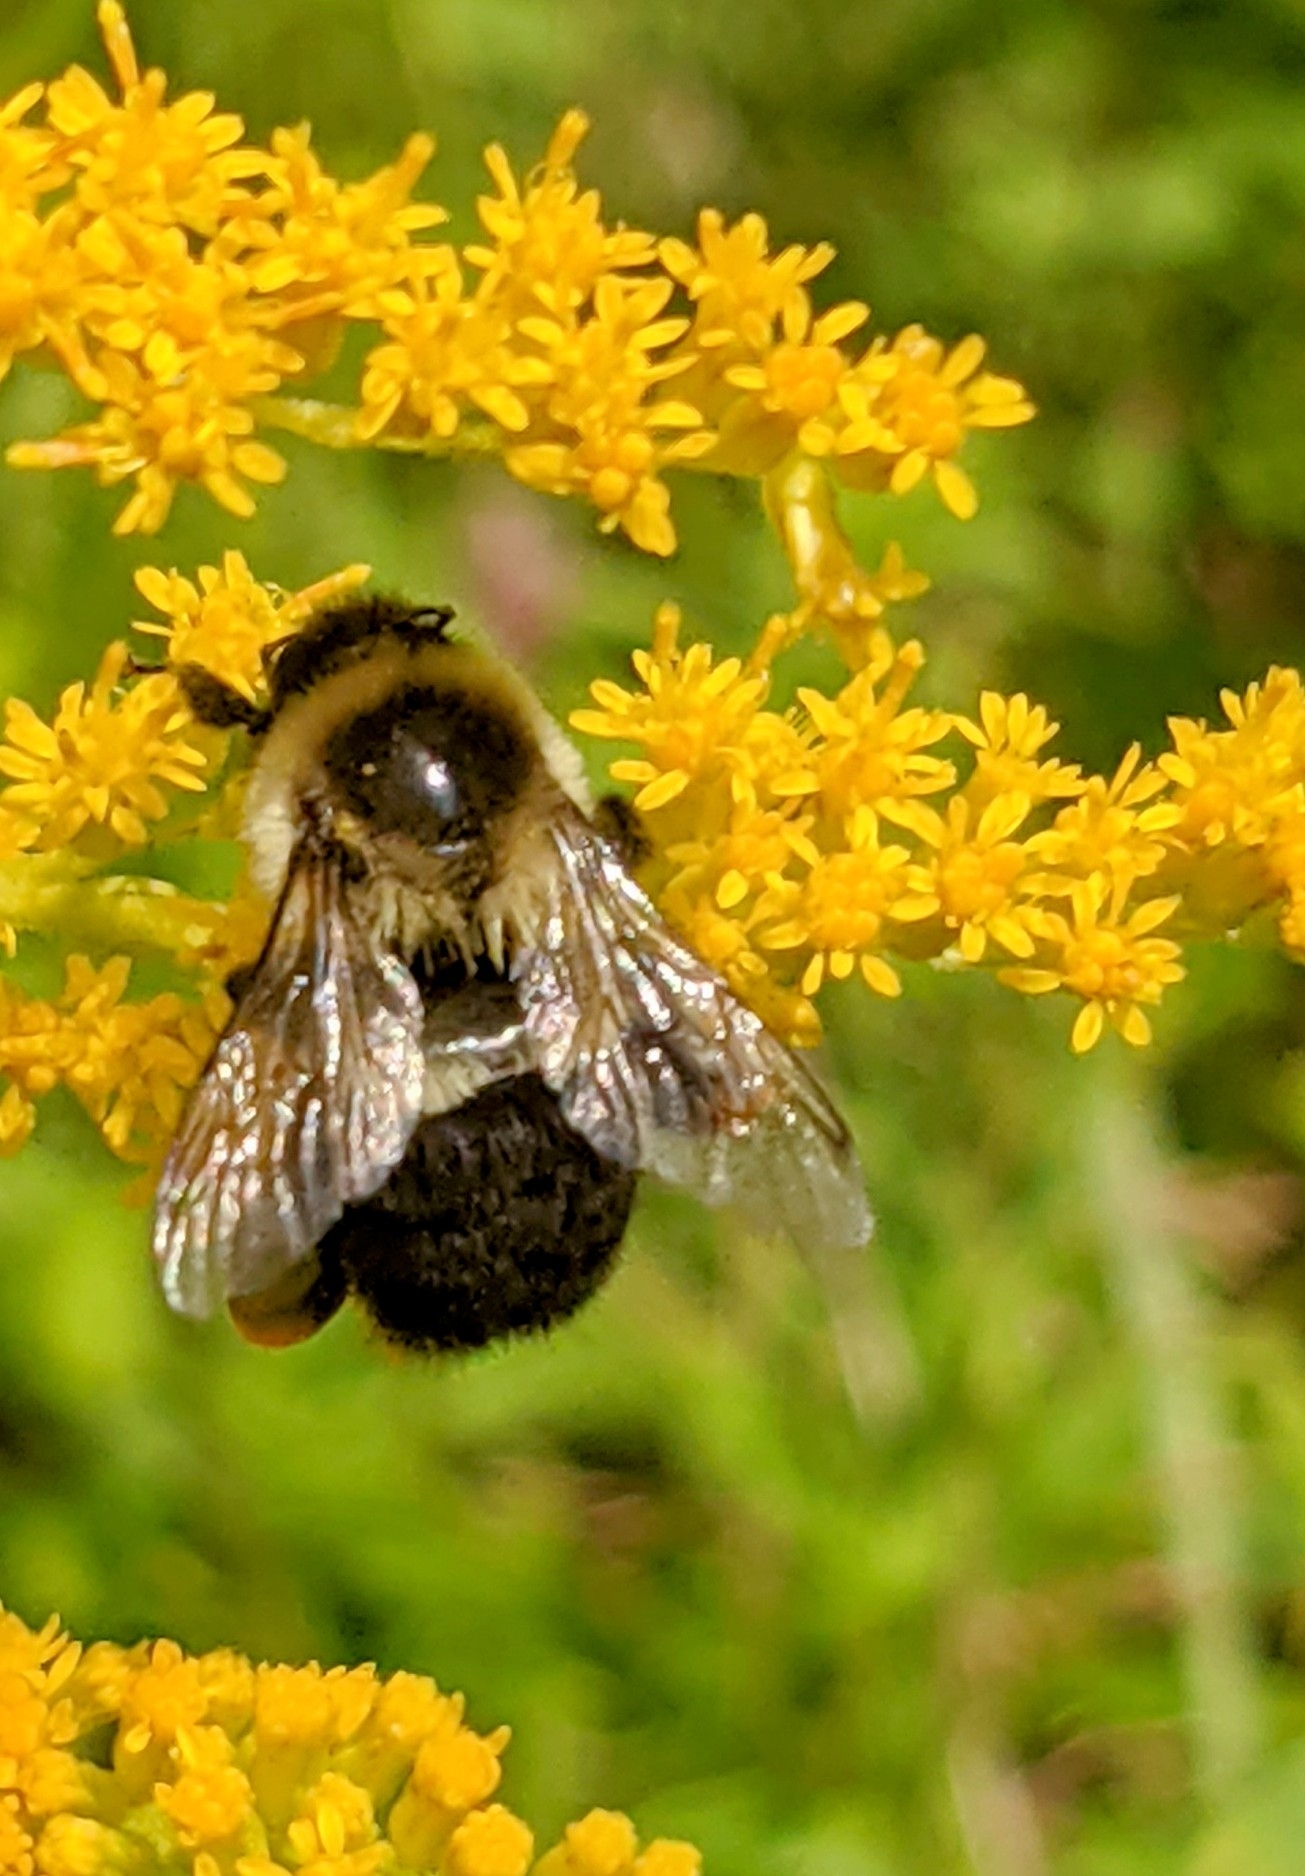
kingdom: Animalia
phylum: Arthropoda
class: Insecta
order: Hymenoptera
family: Apidae
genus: Bombus
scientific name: Bombus impatiens
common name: Common eastern bumble bee
